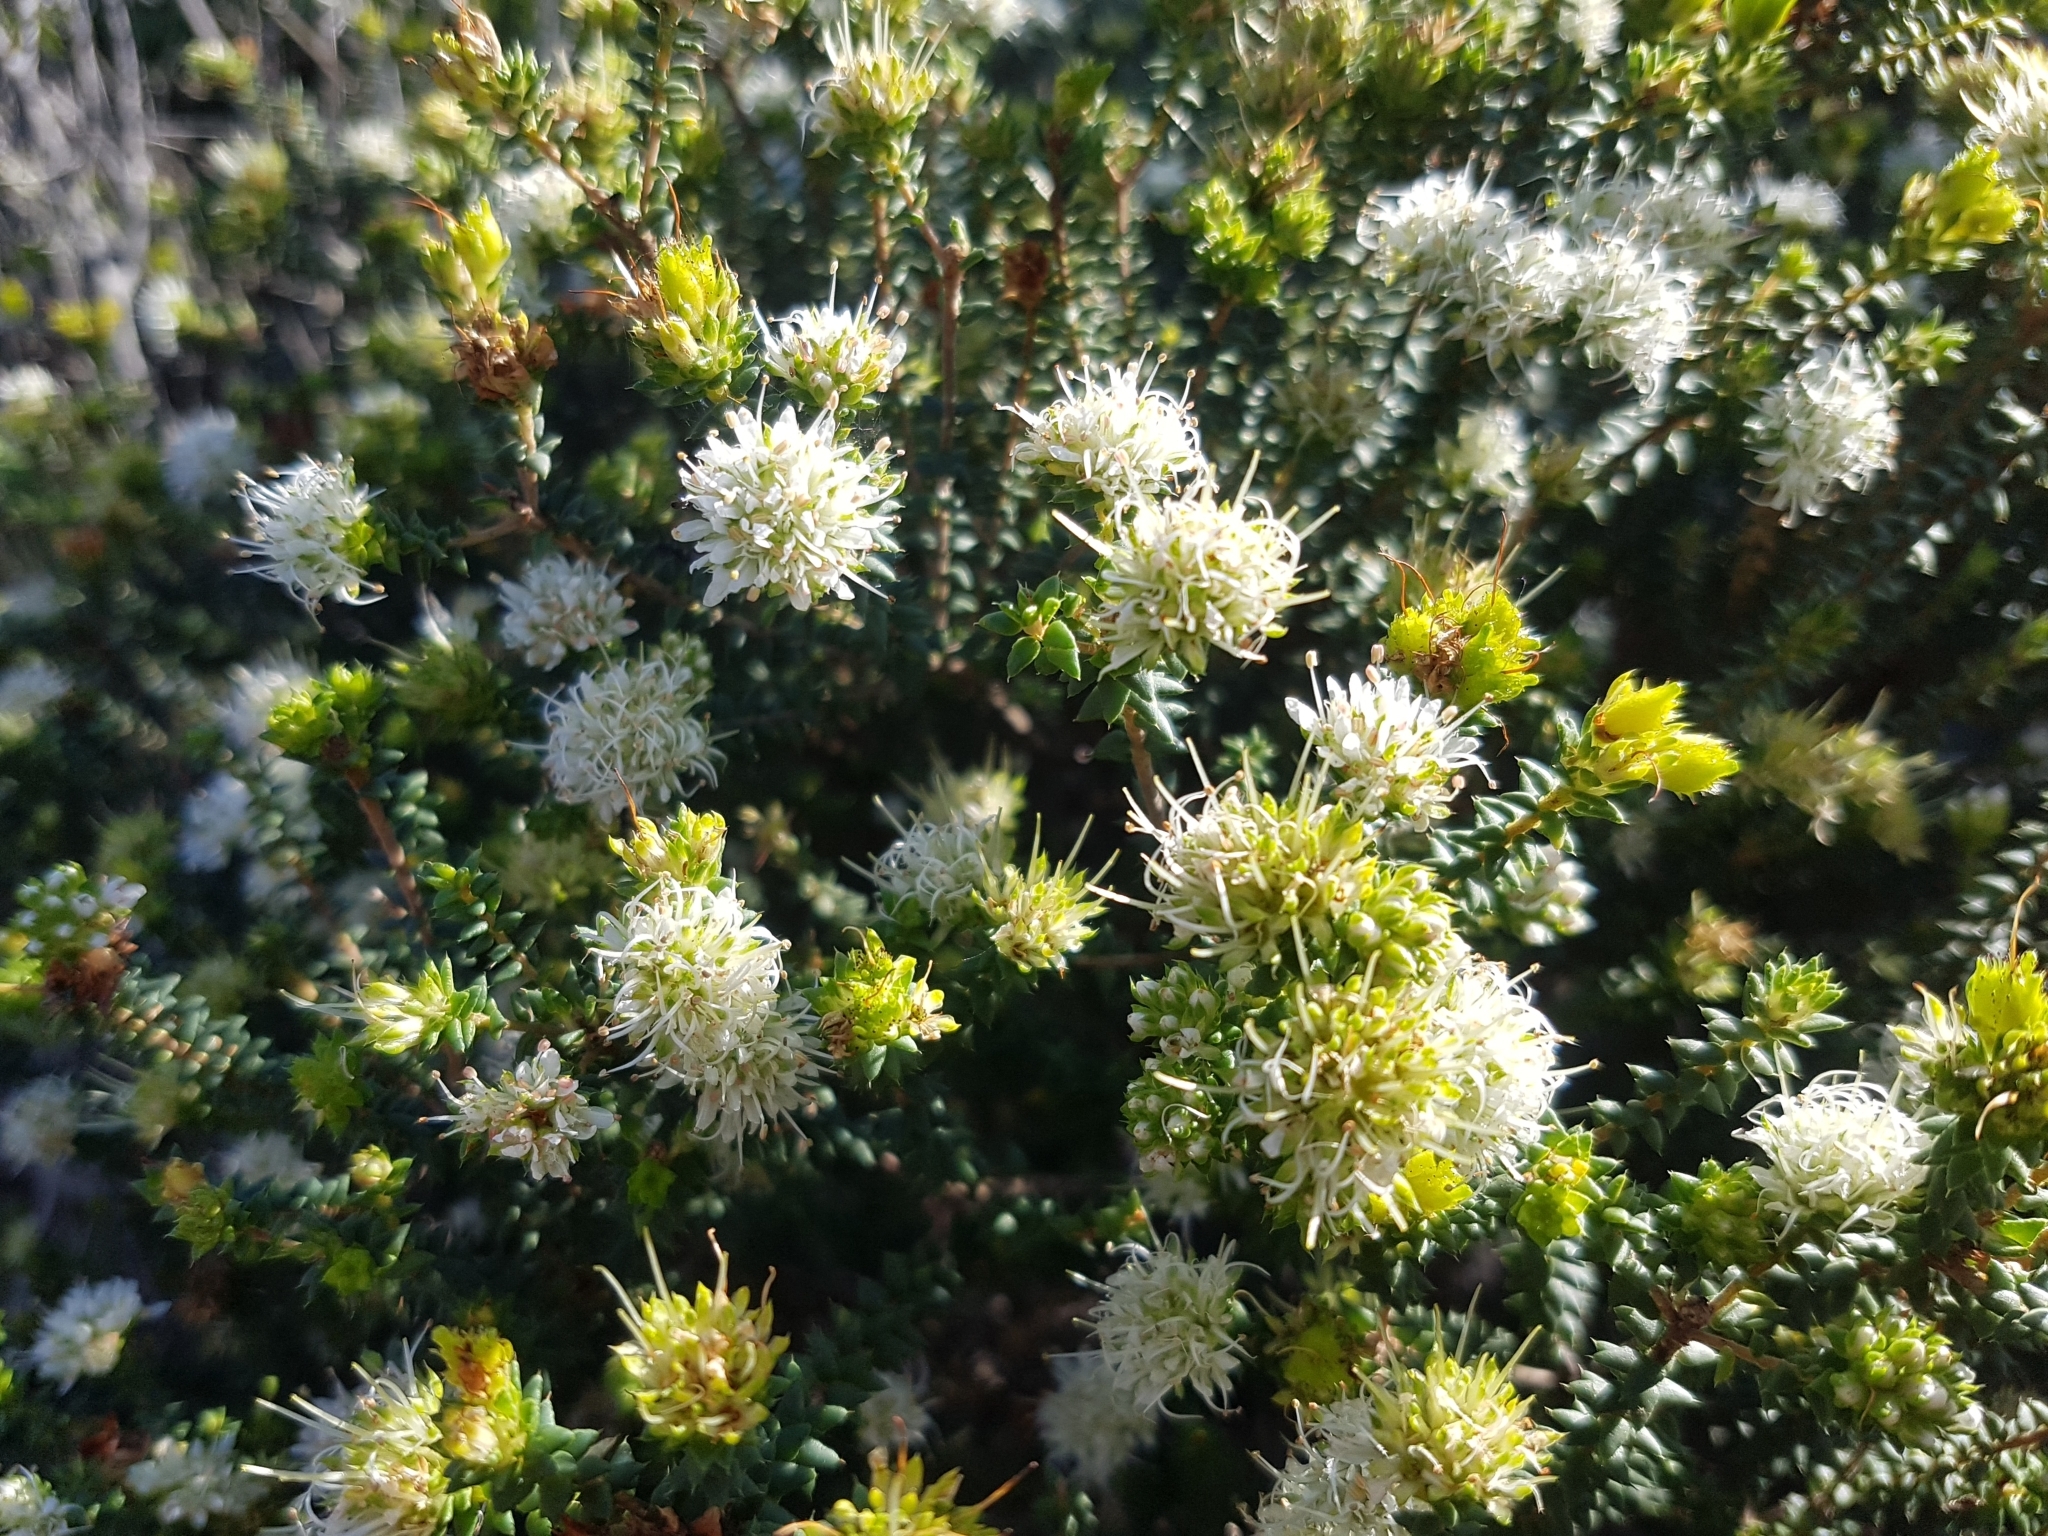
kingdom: Plantae
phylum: Tracheophyta
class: Magnoliopsida
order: Sapindales
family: Rutaceae
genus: Agathosma
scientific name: Agathosma apiculata
